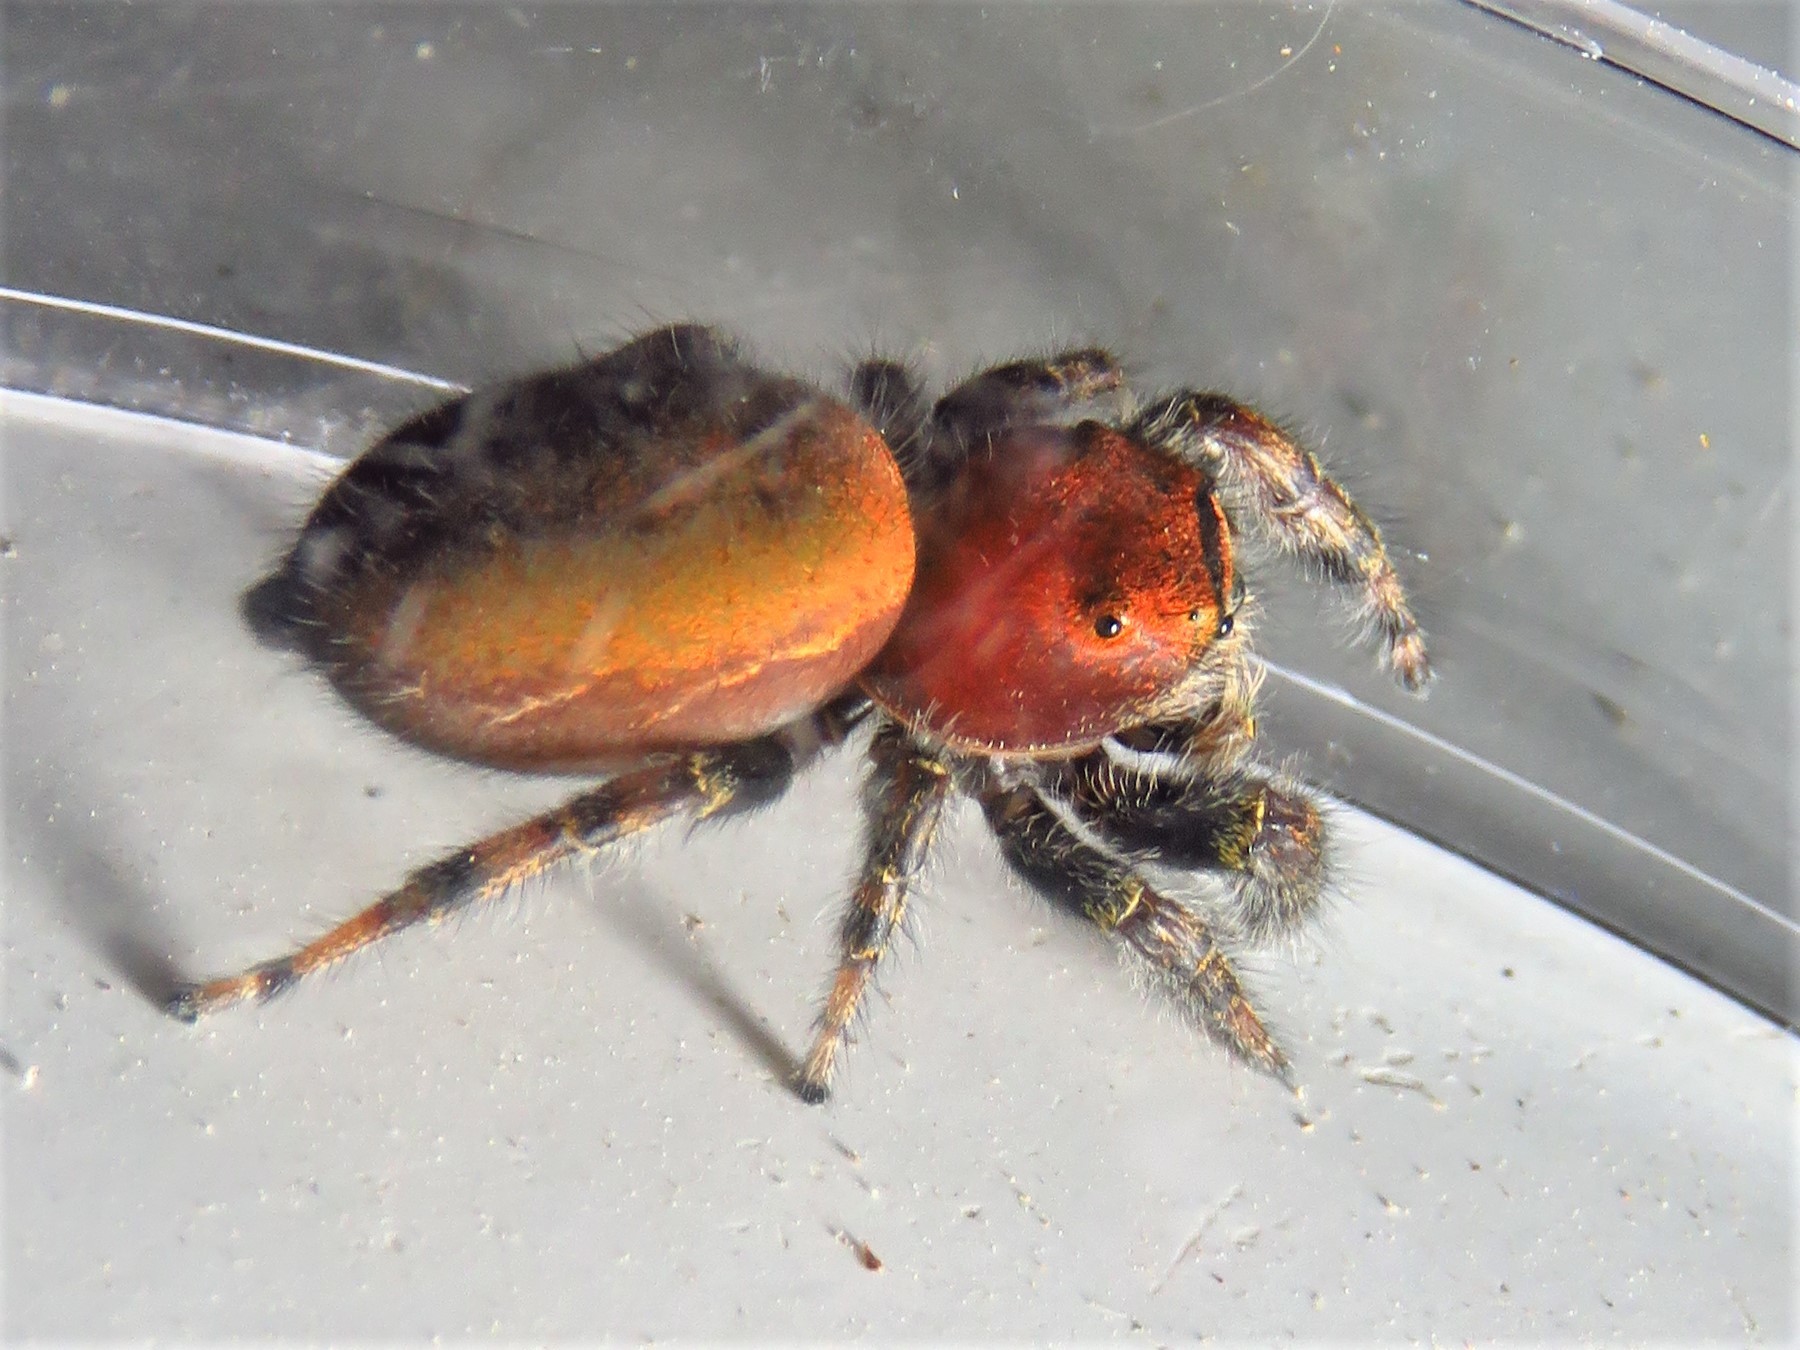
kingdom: Animalia
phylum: Arthropoda
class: Arachnida
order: Araneae
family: Salticidae
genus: Phidippus
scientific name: Phidippus cardinalis
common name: Cardinal jumper
